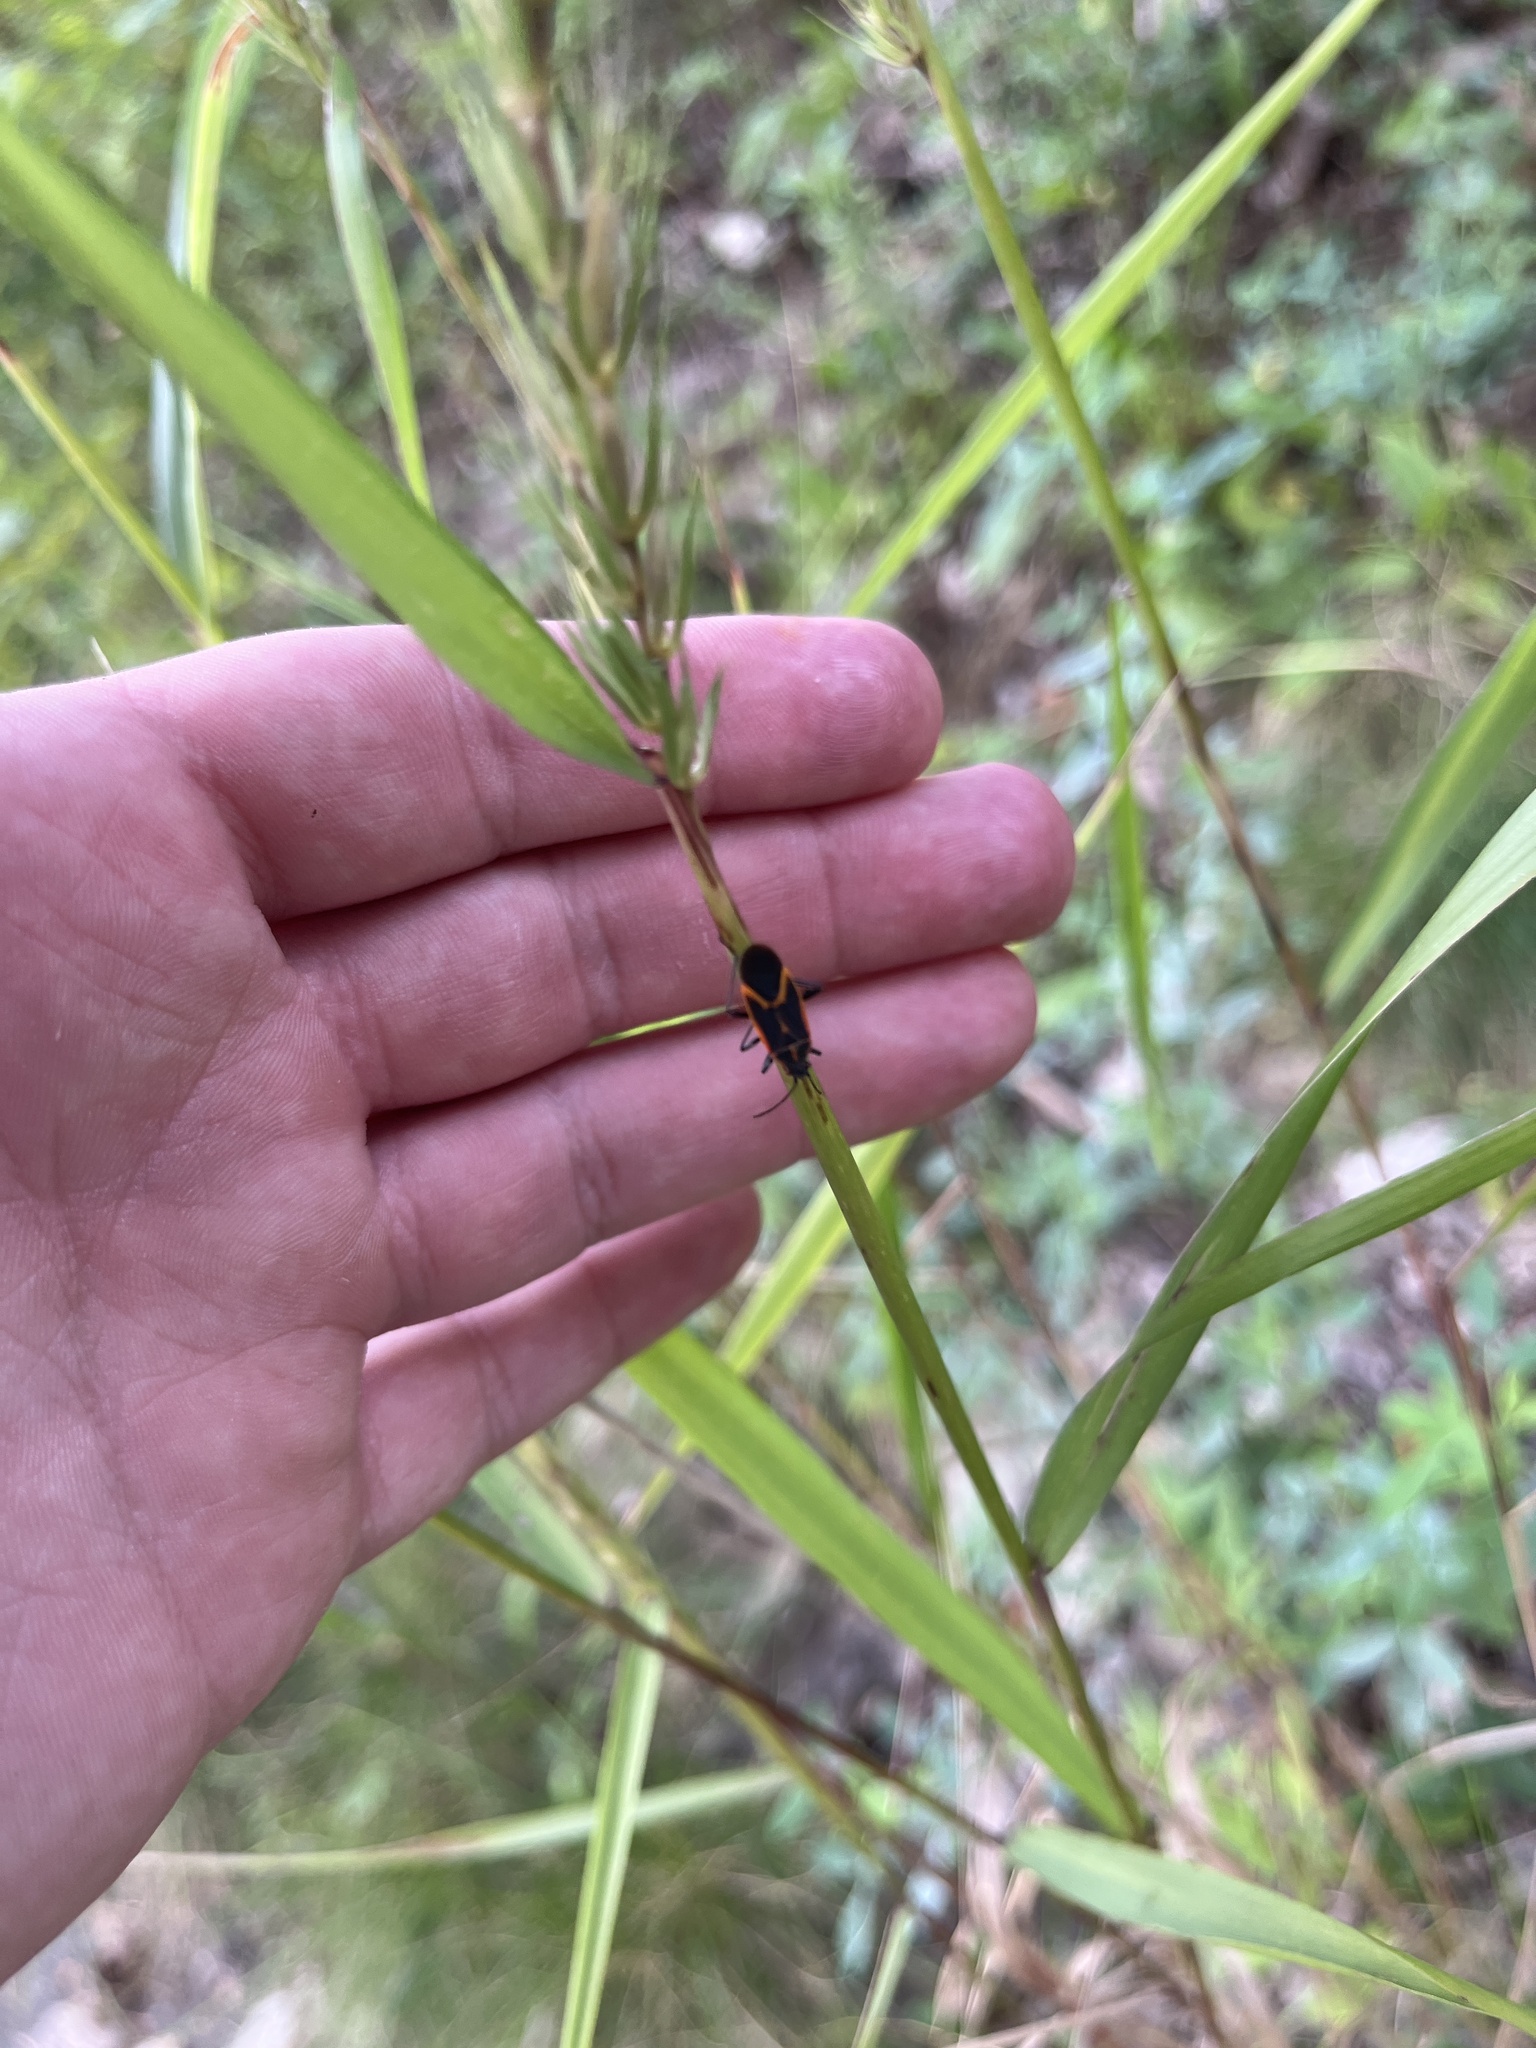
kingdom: Animalia
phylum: Arthropoda
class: Insecta
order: Hemiptera
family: Rhopalidae
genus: Boisea
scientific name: Boisea trivittata
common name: Boxelder bug
